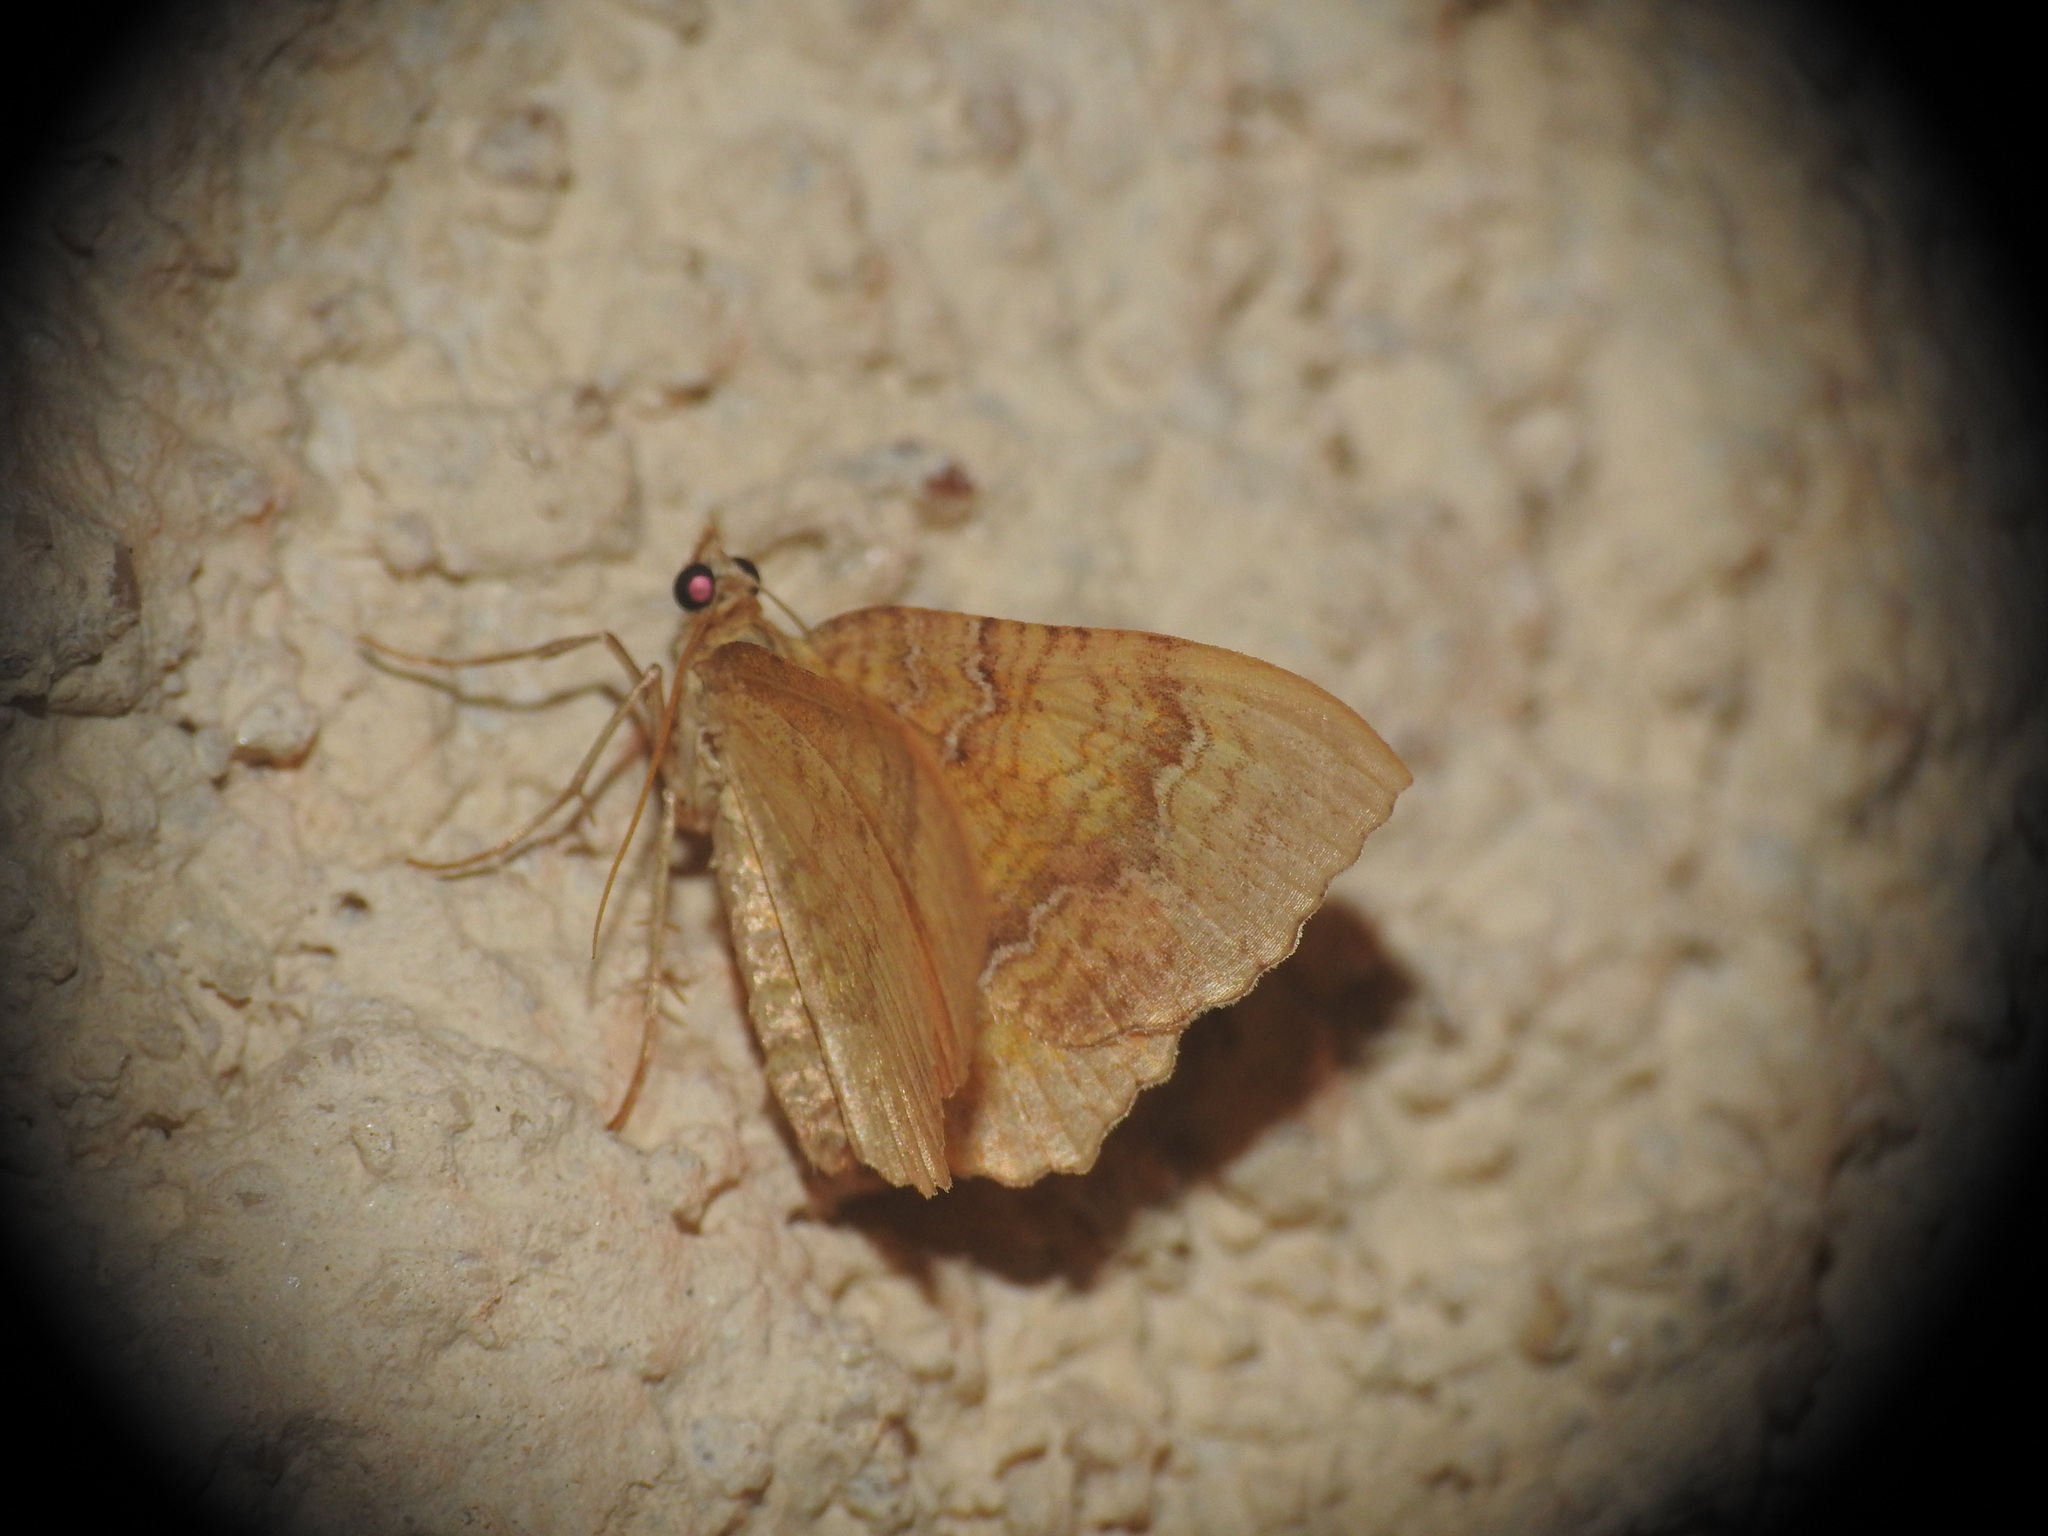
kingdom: Animalia
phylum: Arthropoda
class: Insecta
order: Lepidoptera
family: Geometridae
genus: Camptogramma
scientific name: Camptogramma bilineata
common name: Yellow shell
